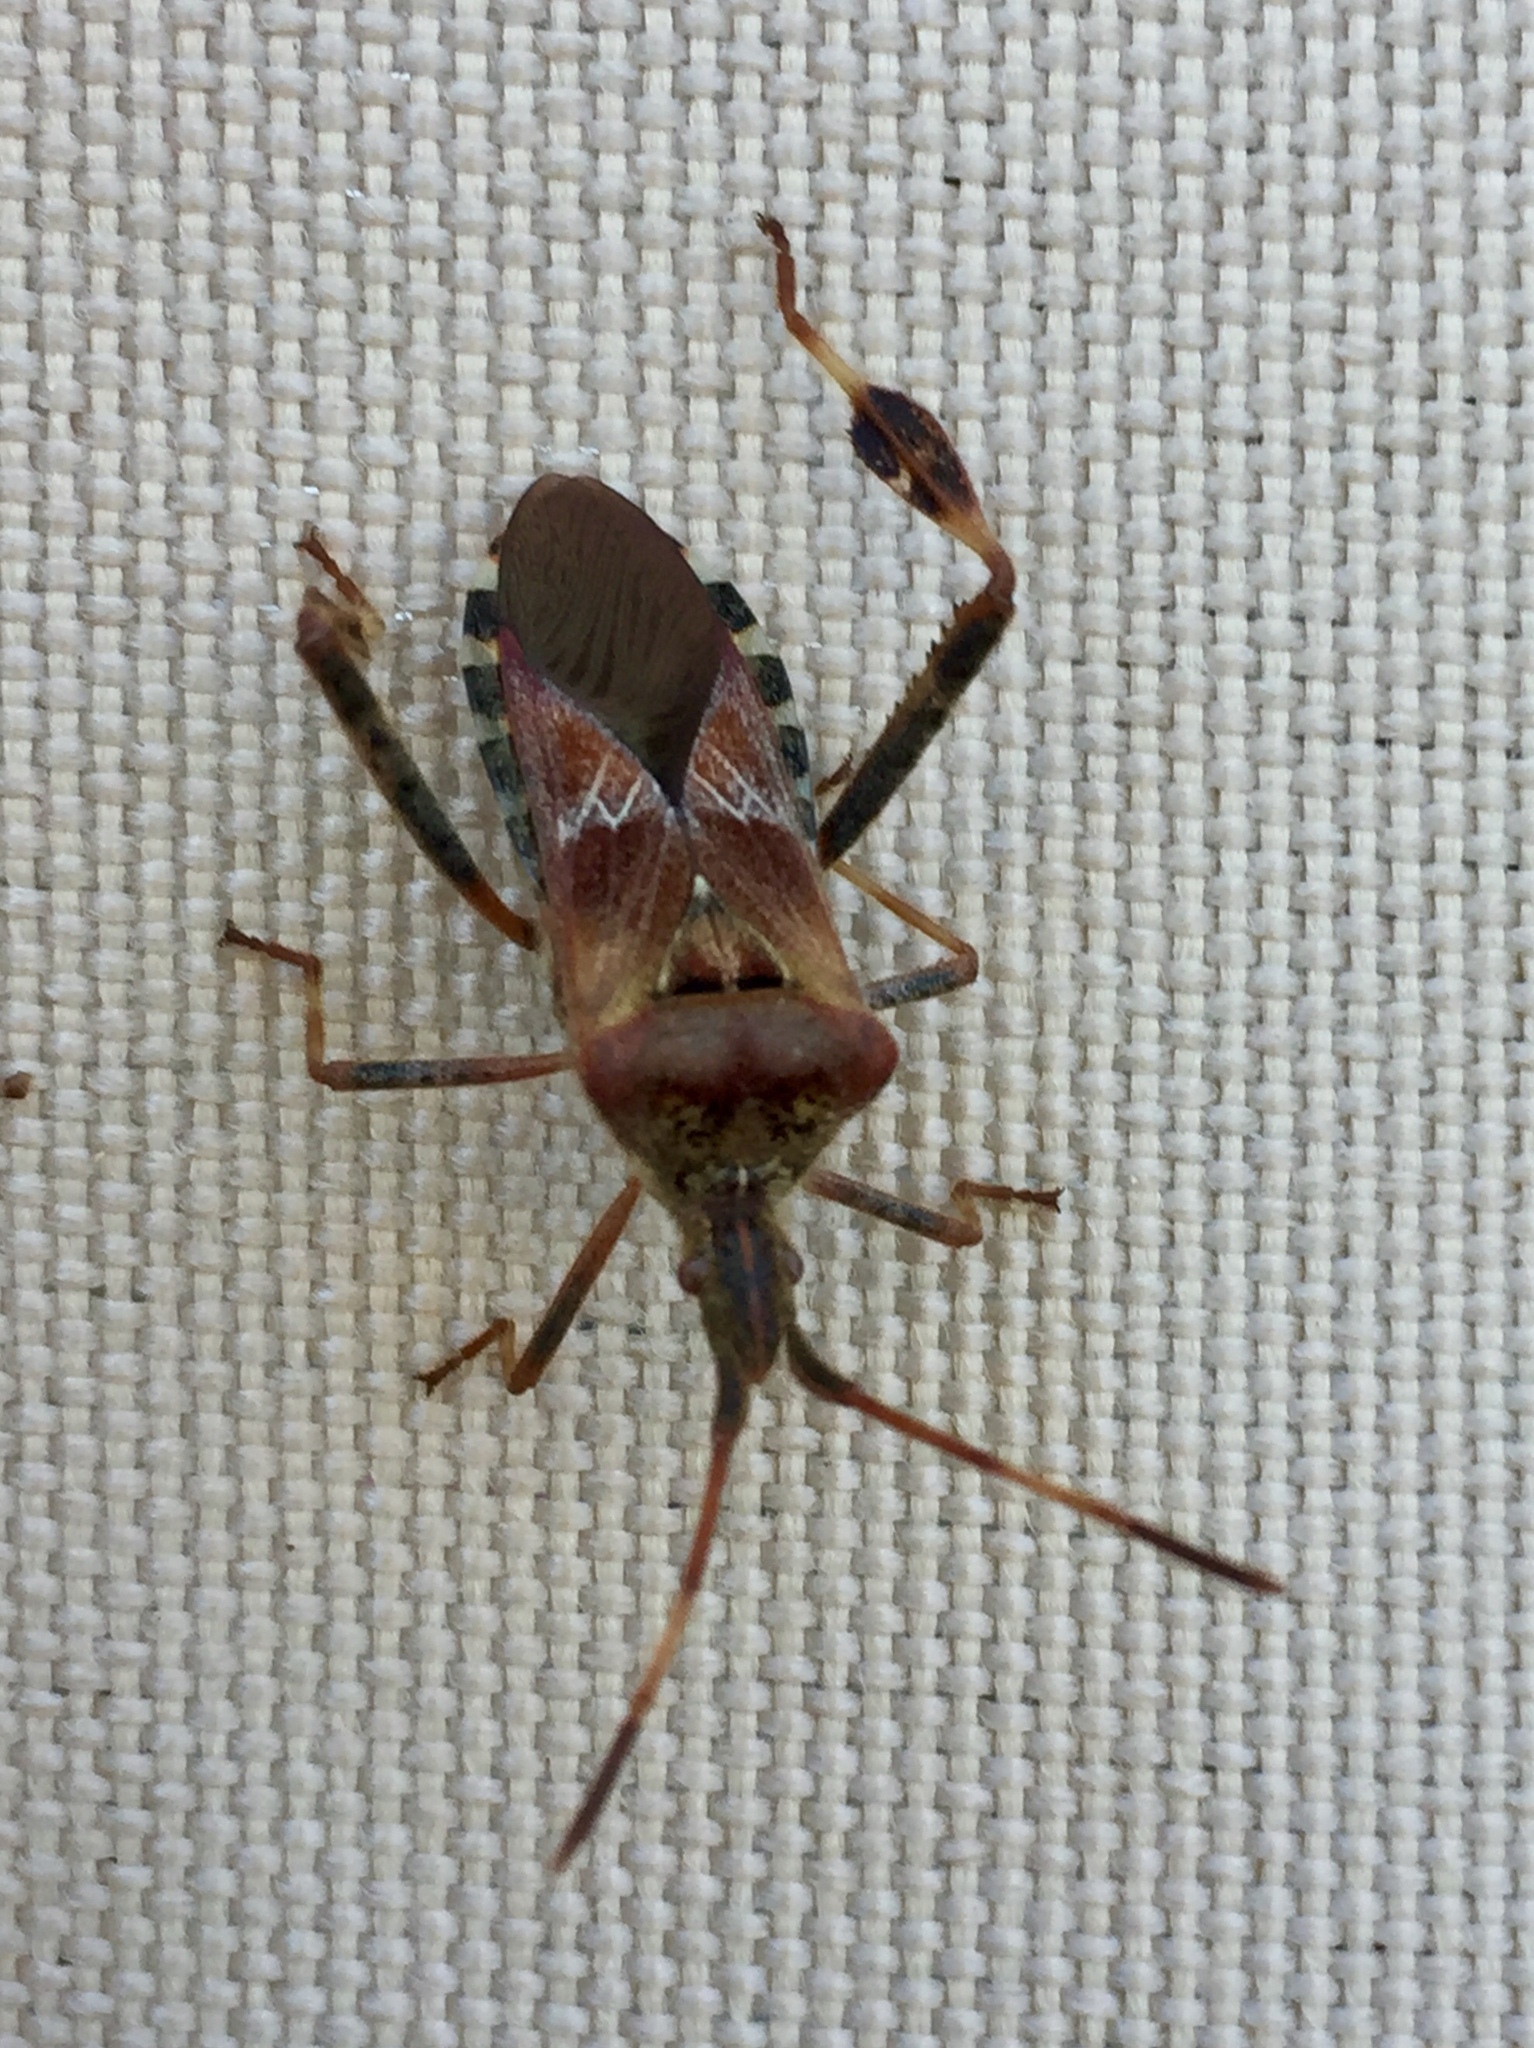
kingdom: Animalia
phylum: Arthropoda
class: Insecta
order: Hemiptera
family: Coreidae
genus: Leptoglossus
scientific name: Leptoglossus occidentalis
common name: Western conifer-seed bug
